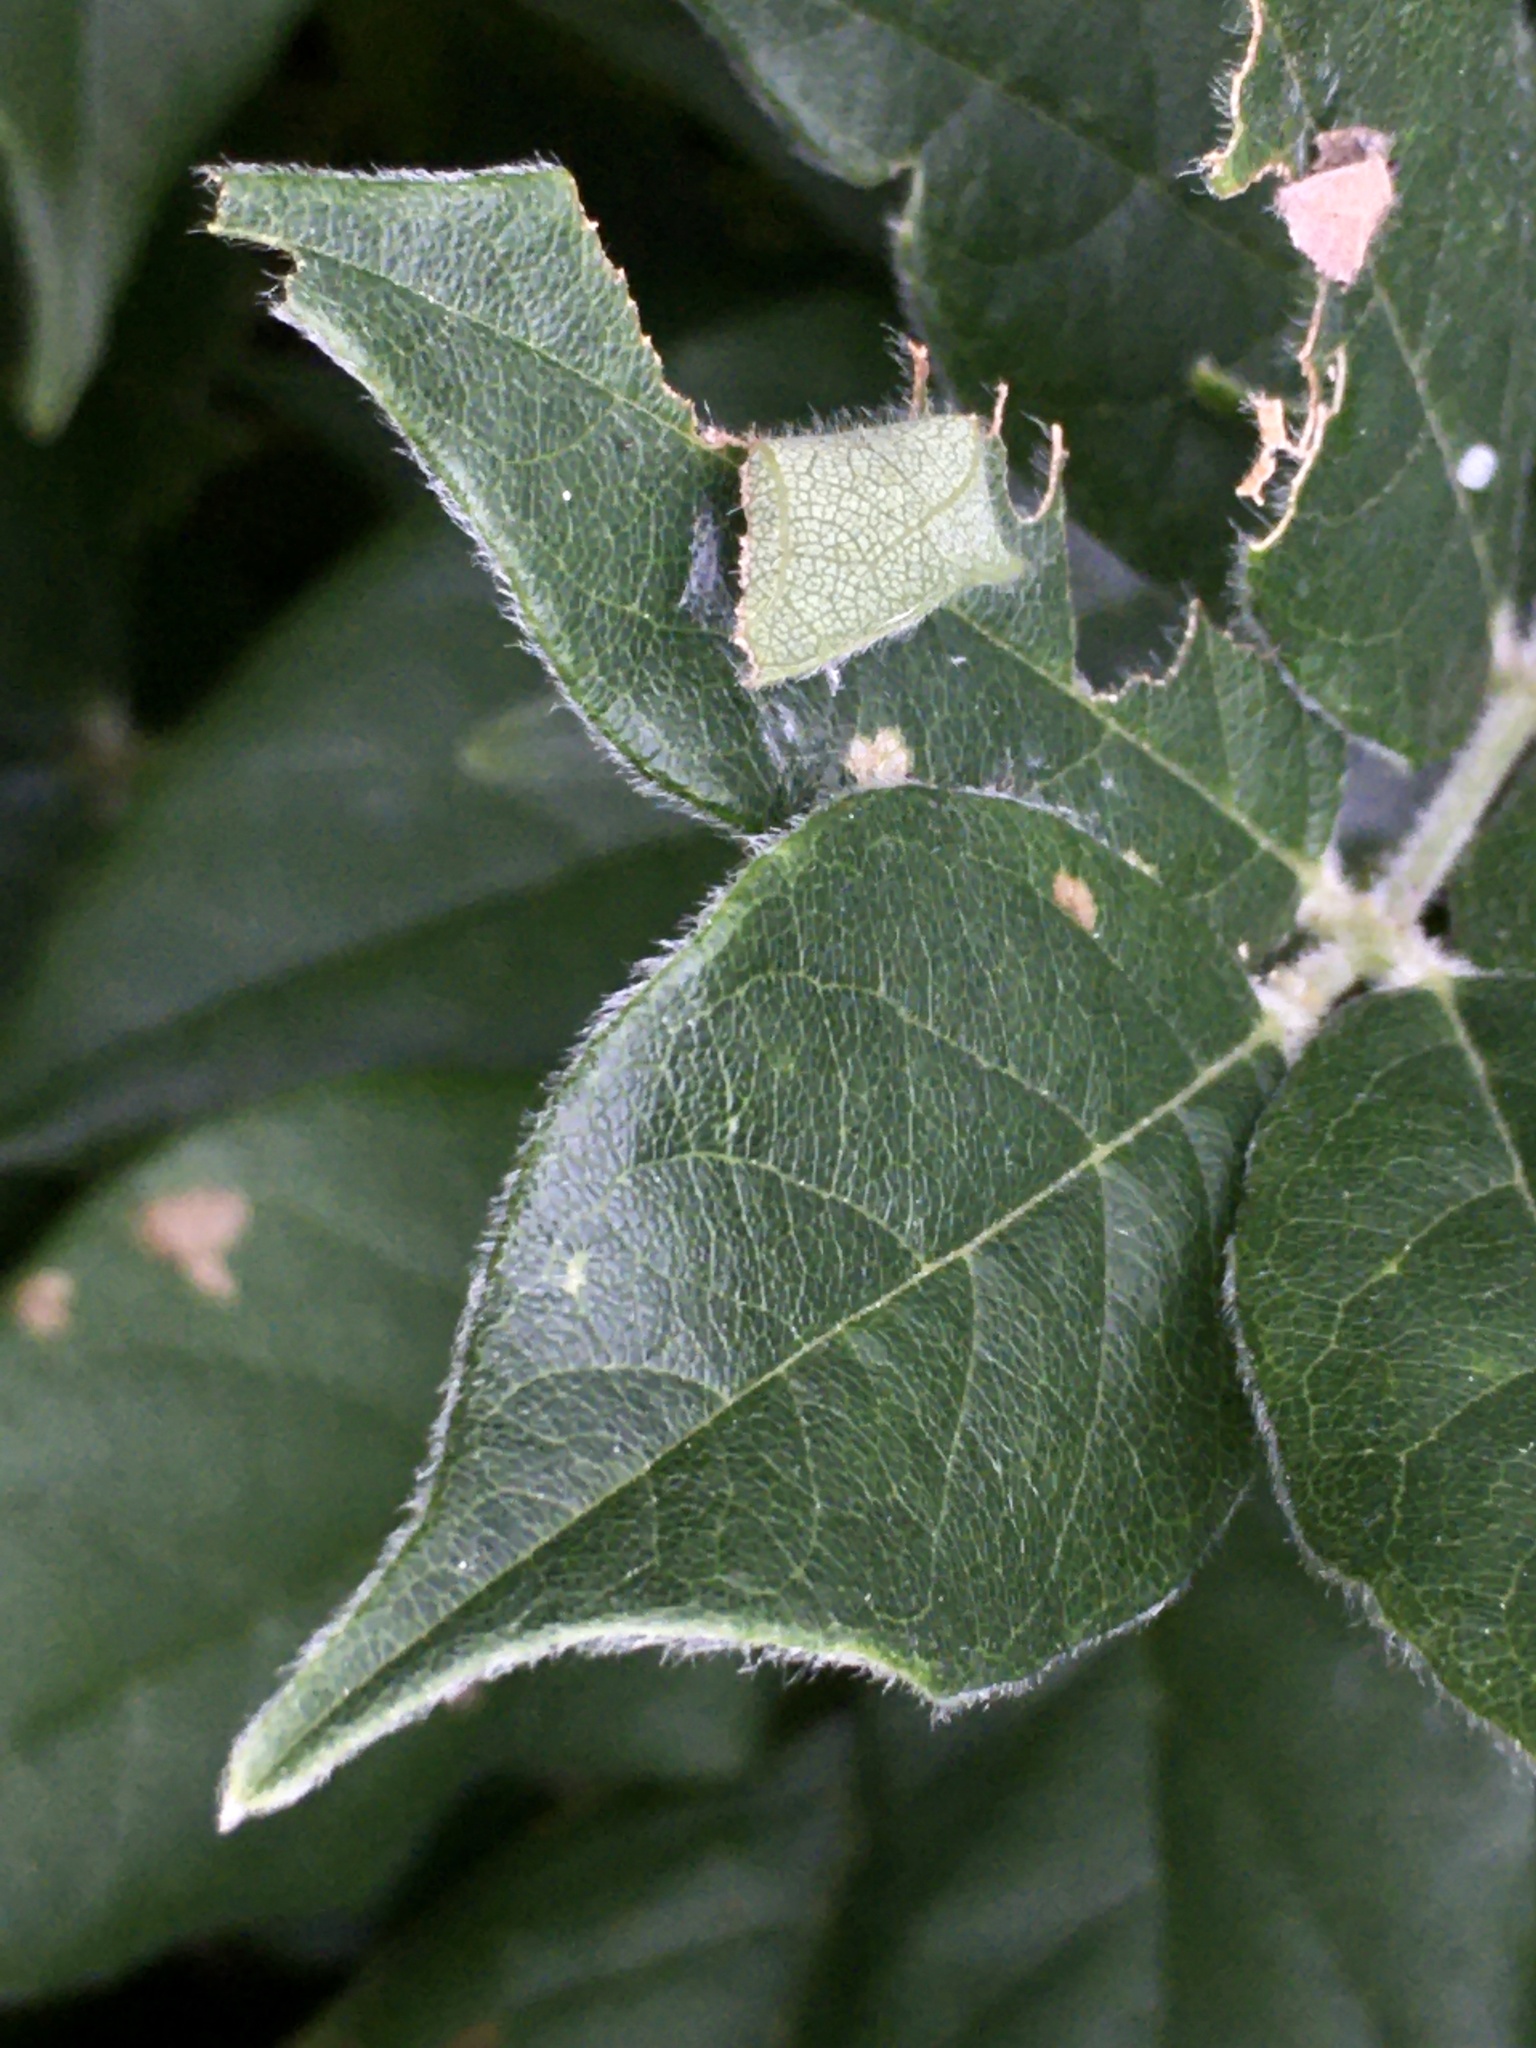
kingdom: Animalia
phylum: Arthropoda
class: Insecta
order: Lepidoptera
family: Hesperiidae
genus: Epargyreus
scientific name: Epargyreus clarus
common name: Silver-spotted skipper
